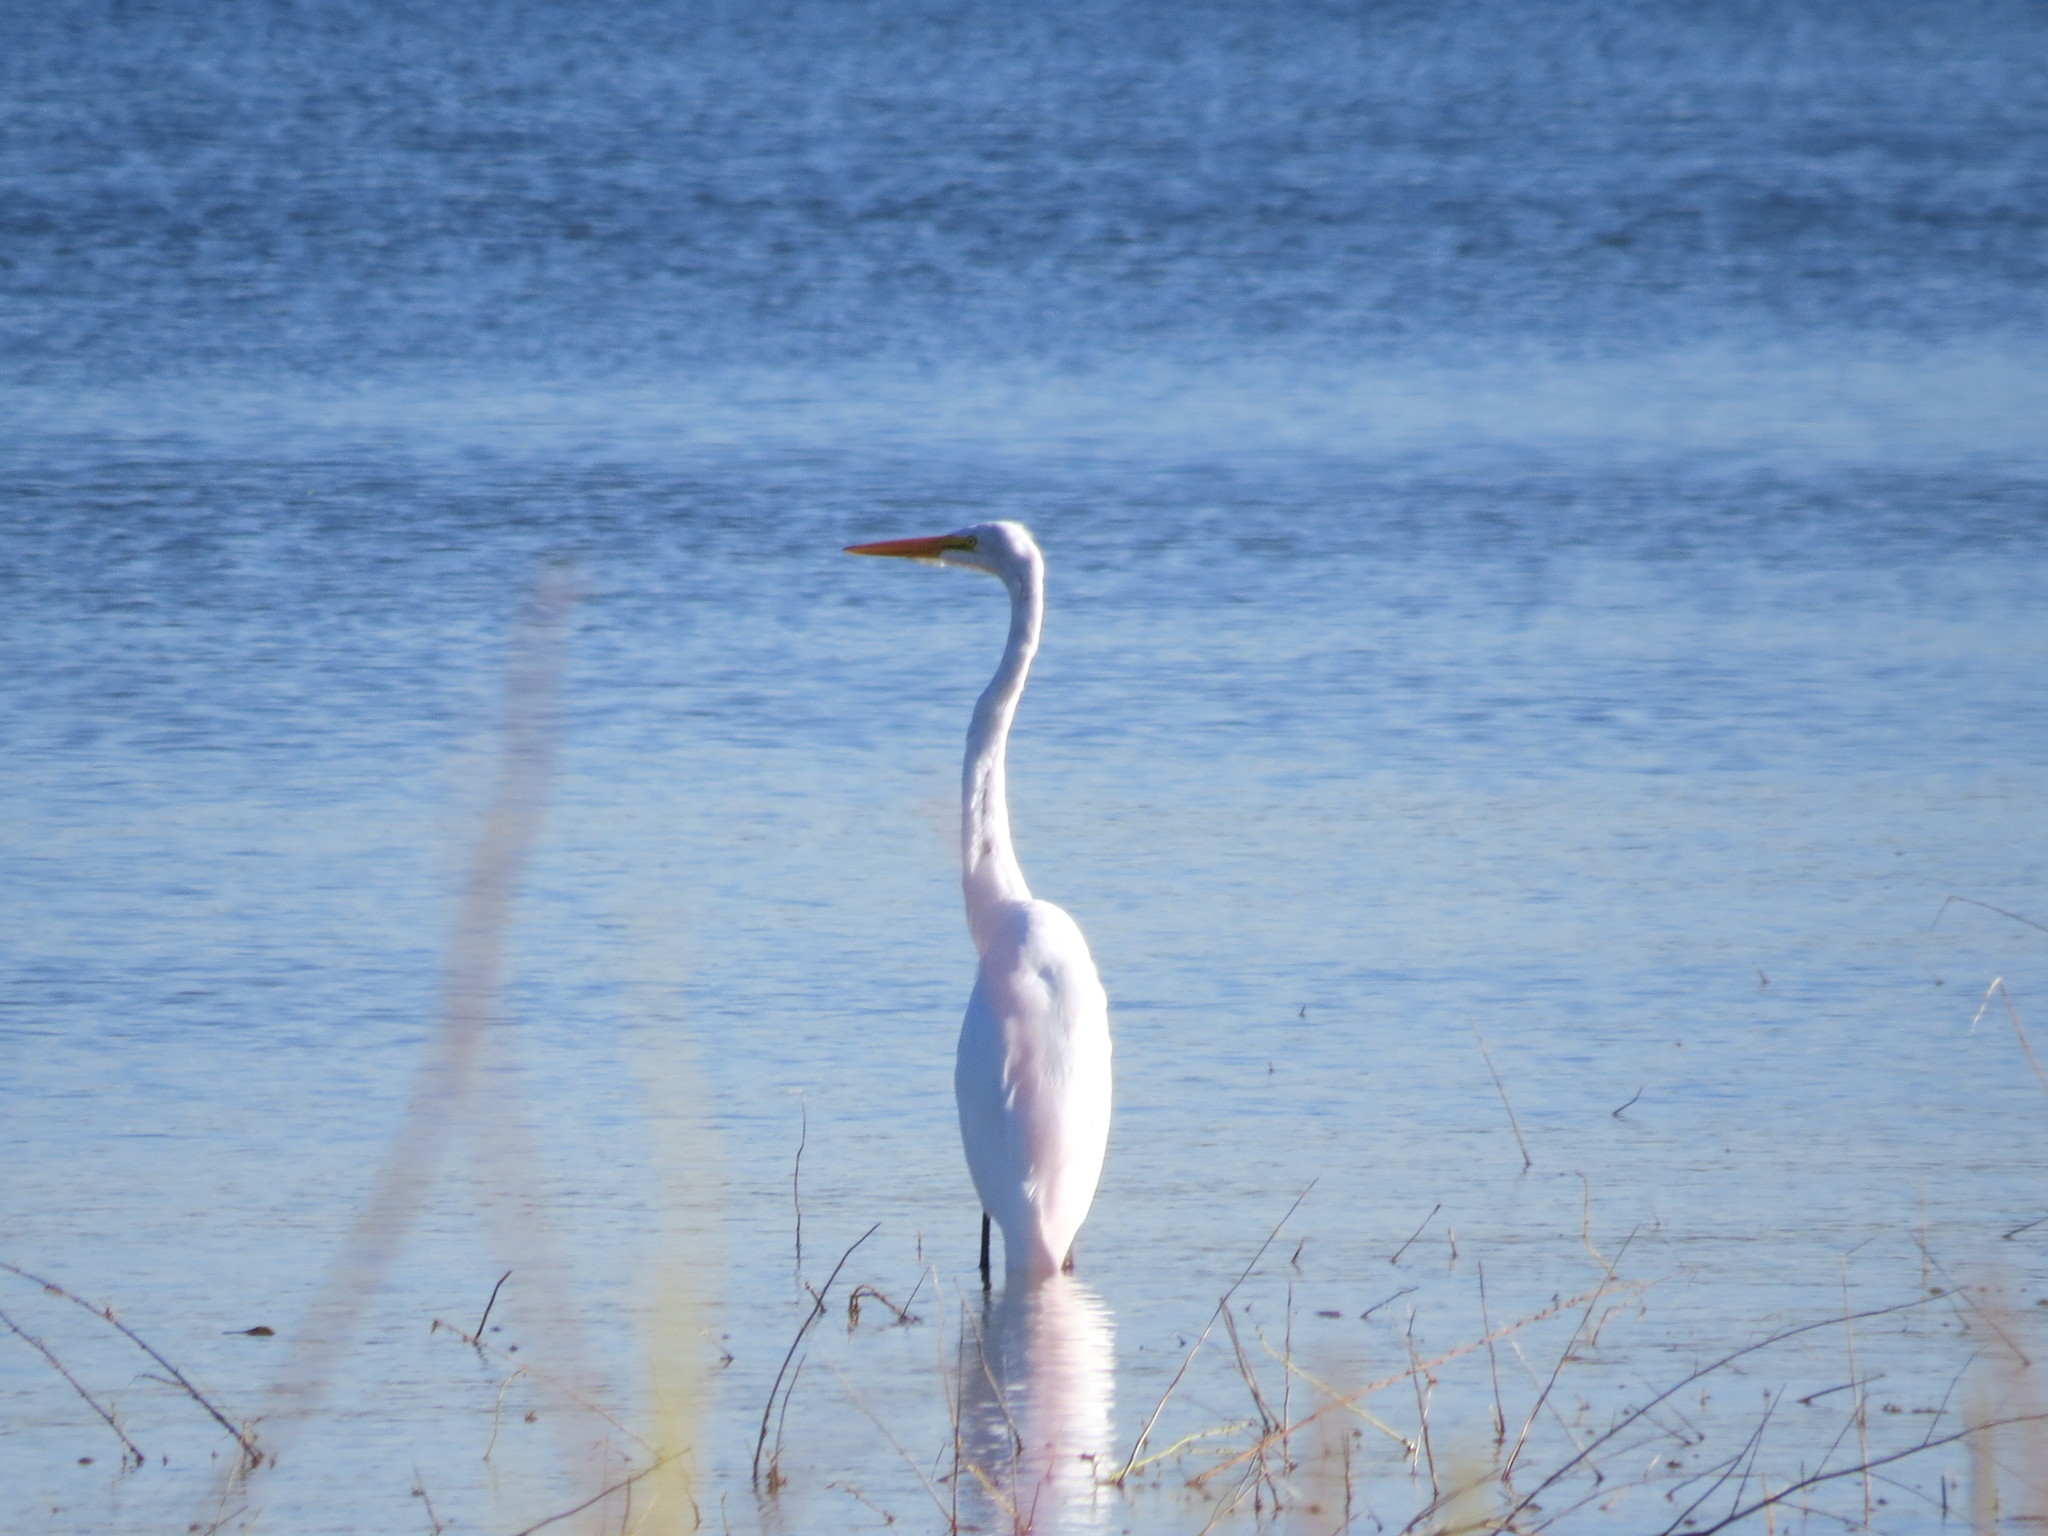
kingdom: Animalia
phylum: Chordata
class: Aves
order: Pelecaniformes
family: Ardeidae
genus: Ardea
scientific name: Ardea alba
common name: Great egret
